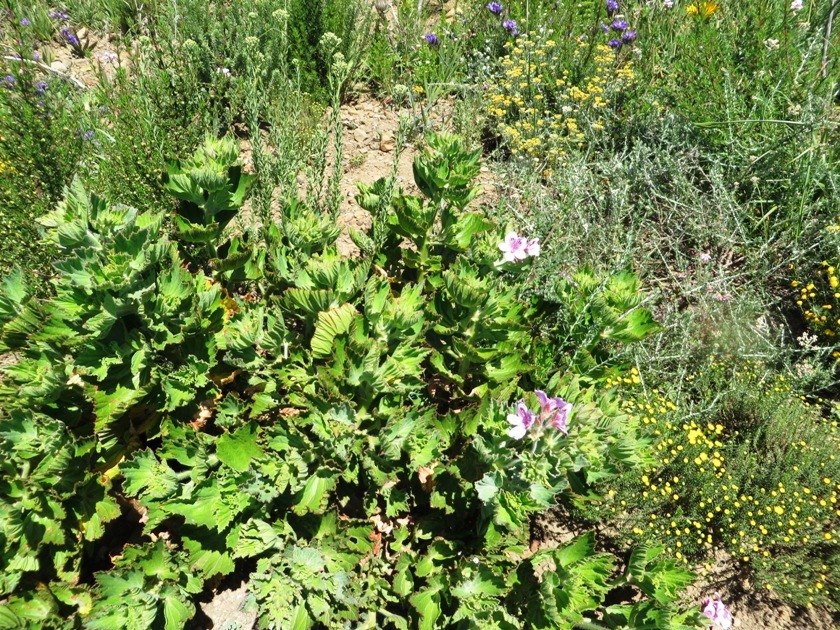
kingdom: Plantae
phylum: Tracheophyta
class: Magnoliopsida
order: Geraniales
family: Geraniaceae
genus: Pelargonium
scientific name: Pelargonium cucullatum
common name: Tree pelargonium
